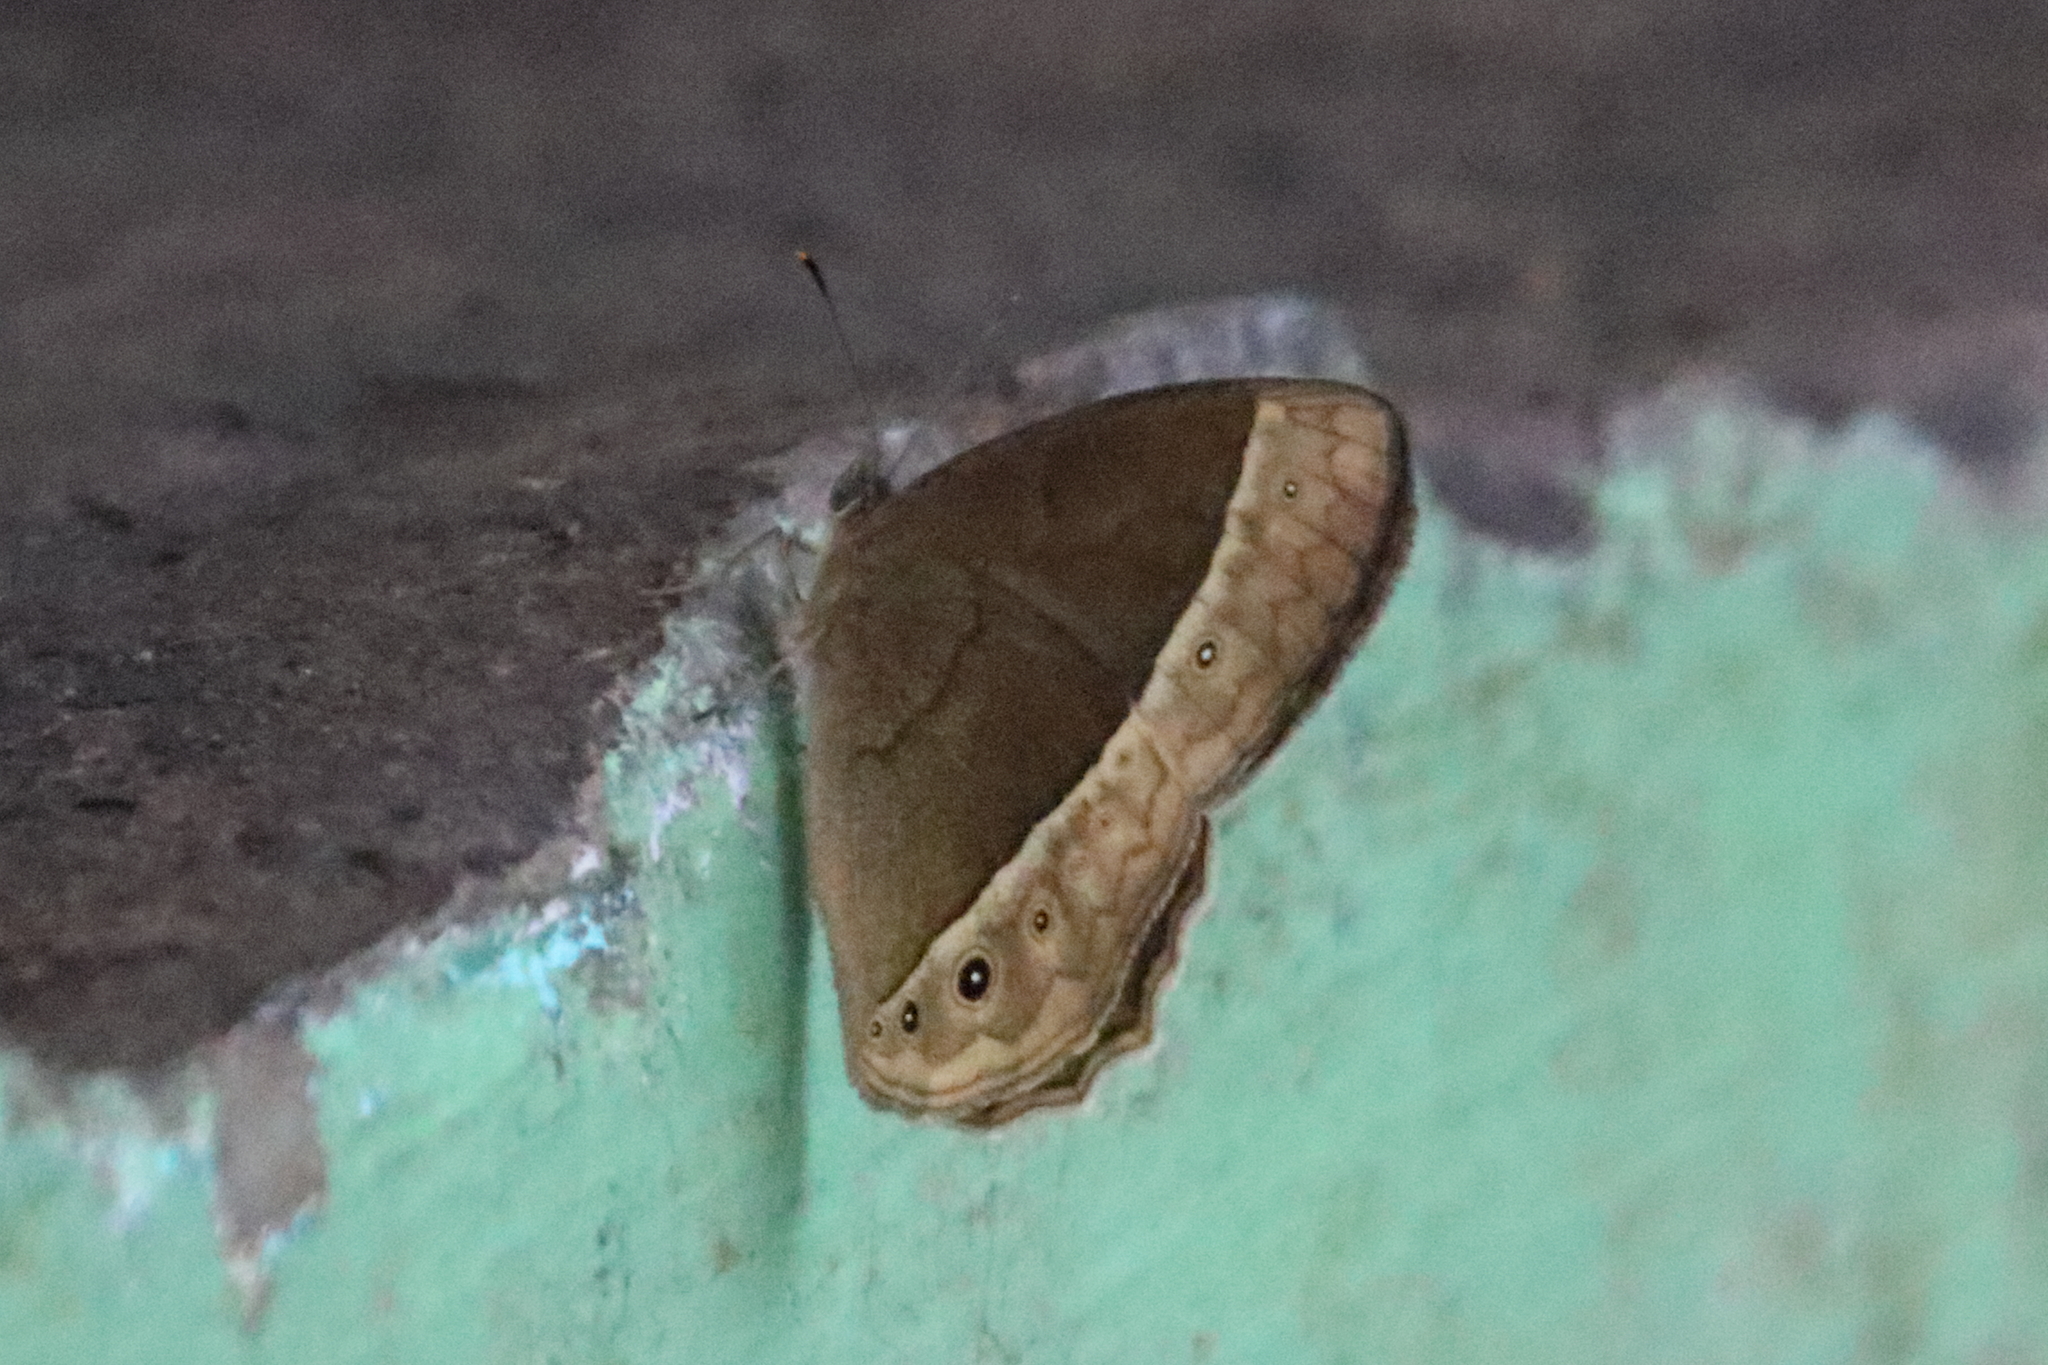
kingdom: Animalia
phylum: Arthropoda
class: Insecta
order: Lepidoptera
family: Nymphalidae
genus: Mycalesis
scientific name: Mycalesis sudra
